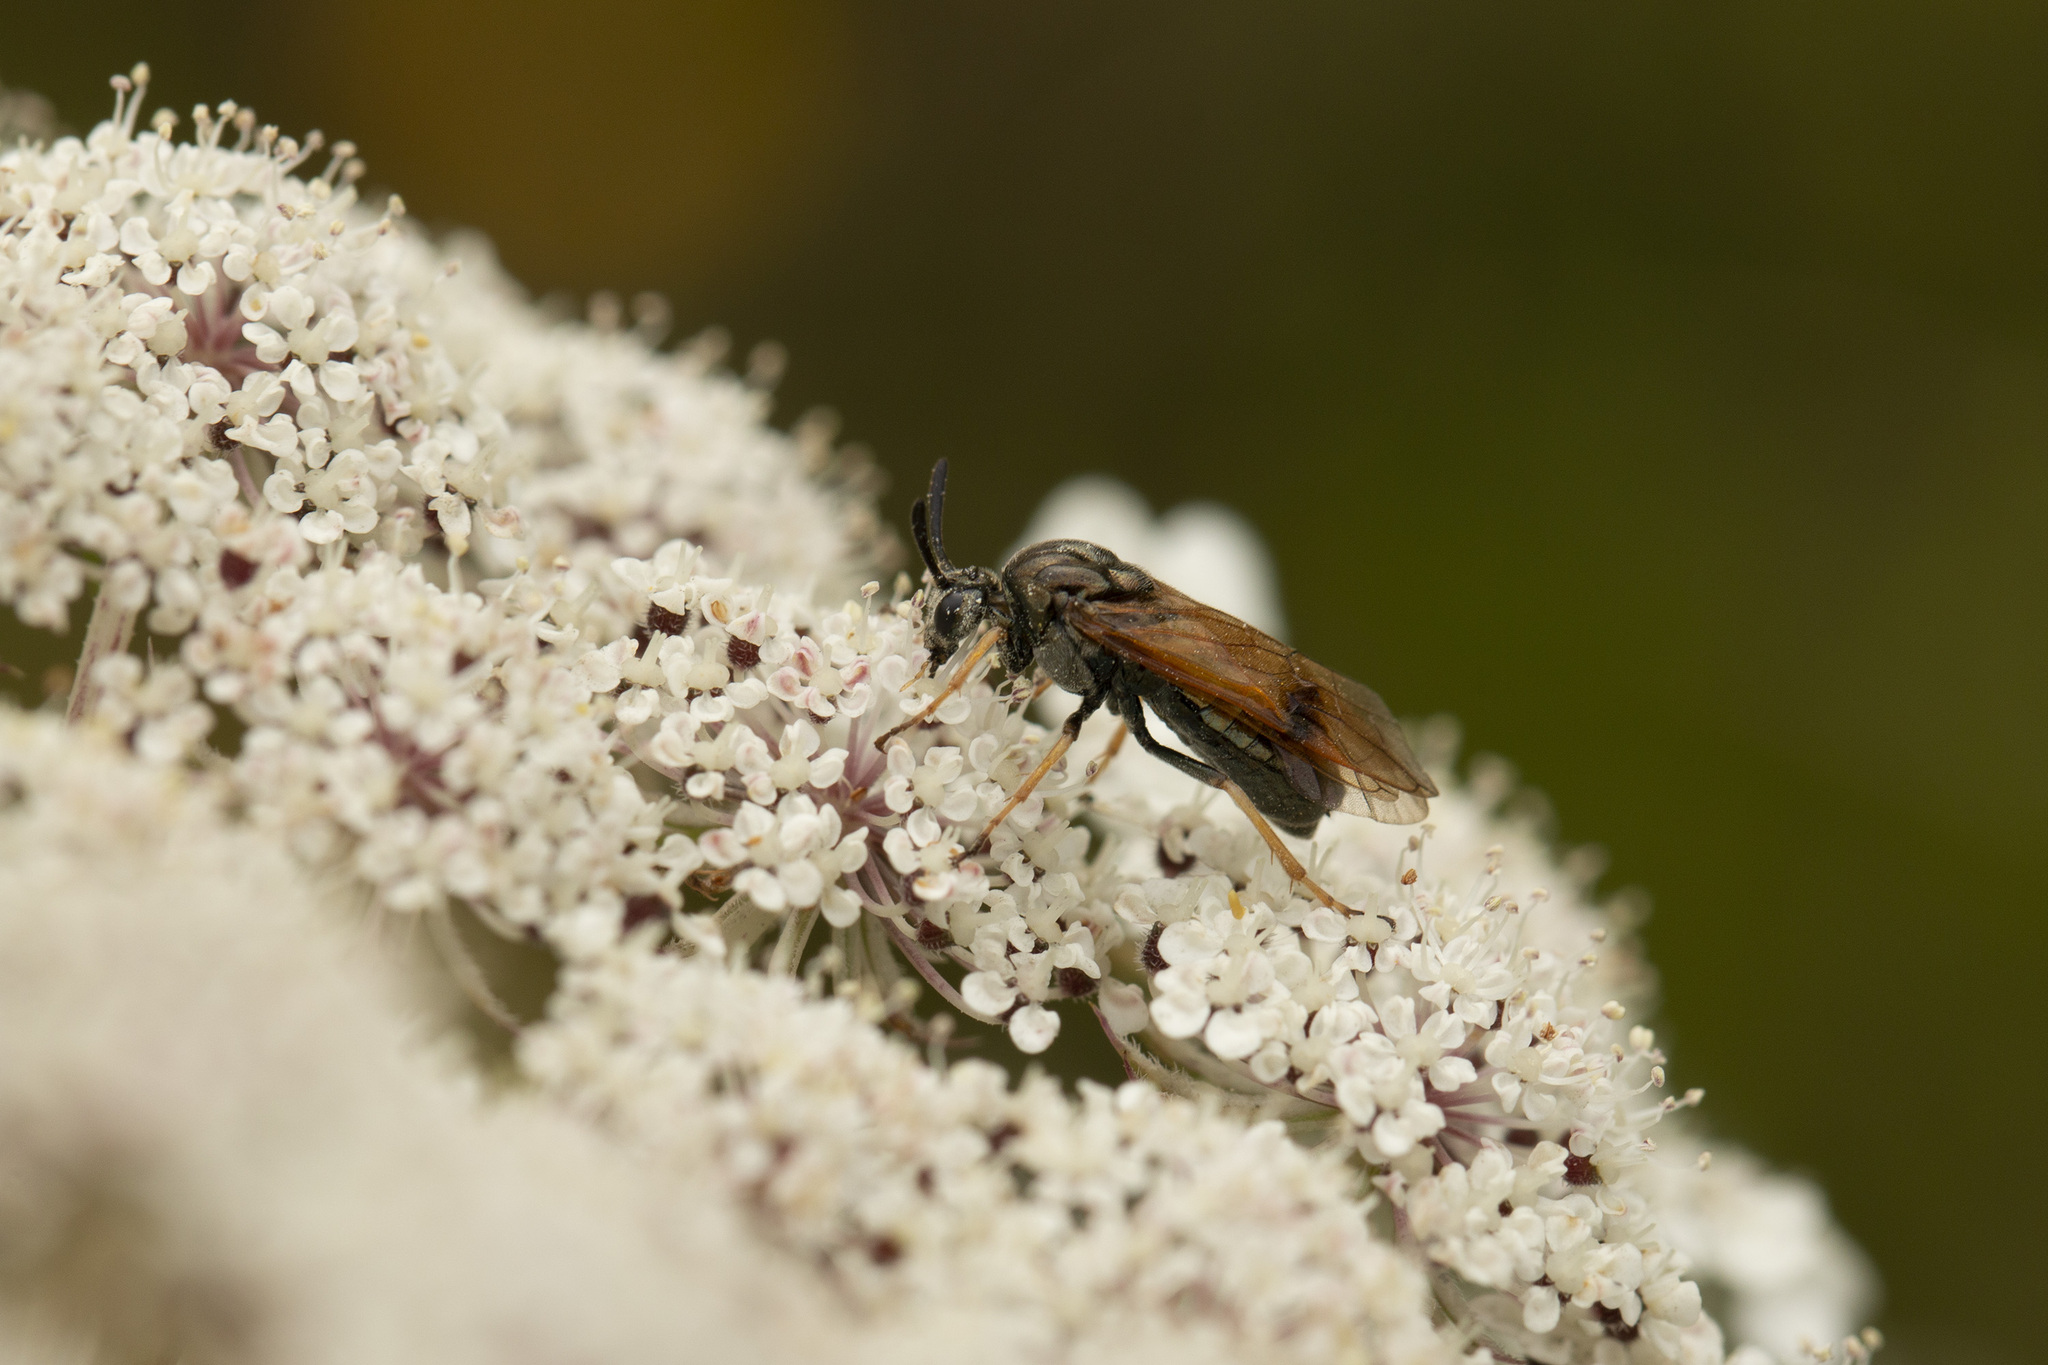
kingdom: Animalia
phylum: Arthropoda
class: Insecta
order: Hymenoptera
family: Argidae
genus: Arge
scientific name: Arge ustulata
